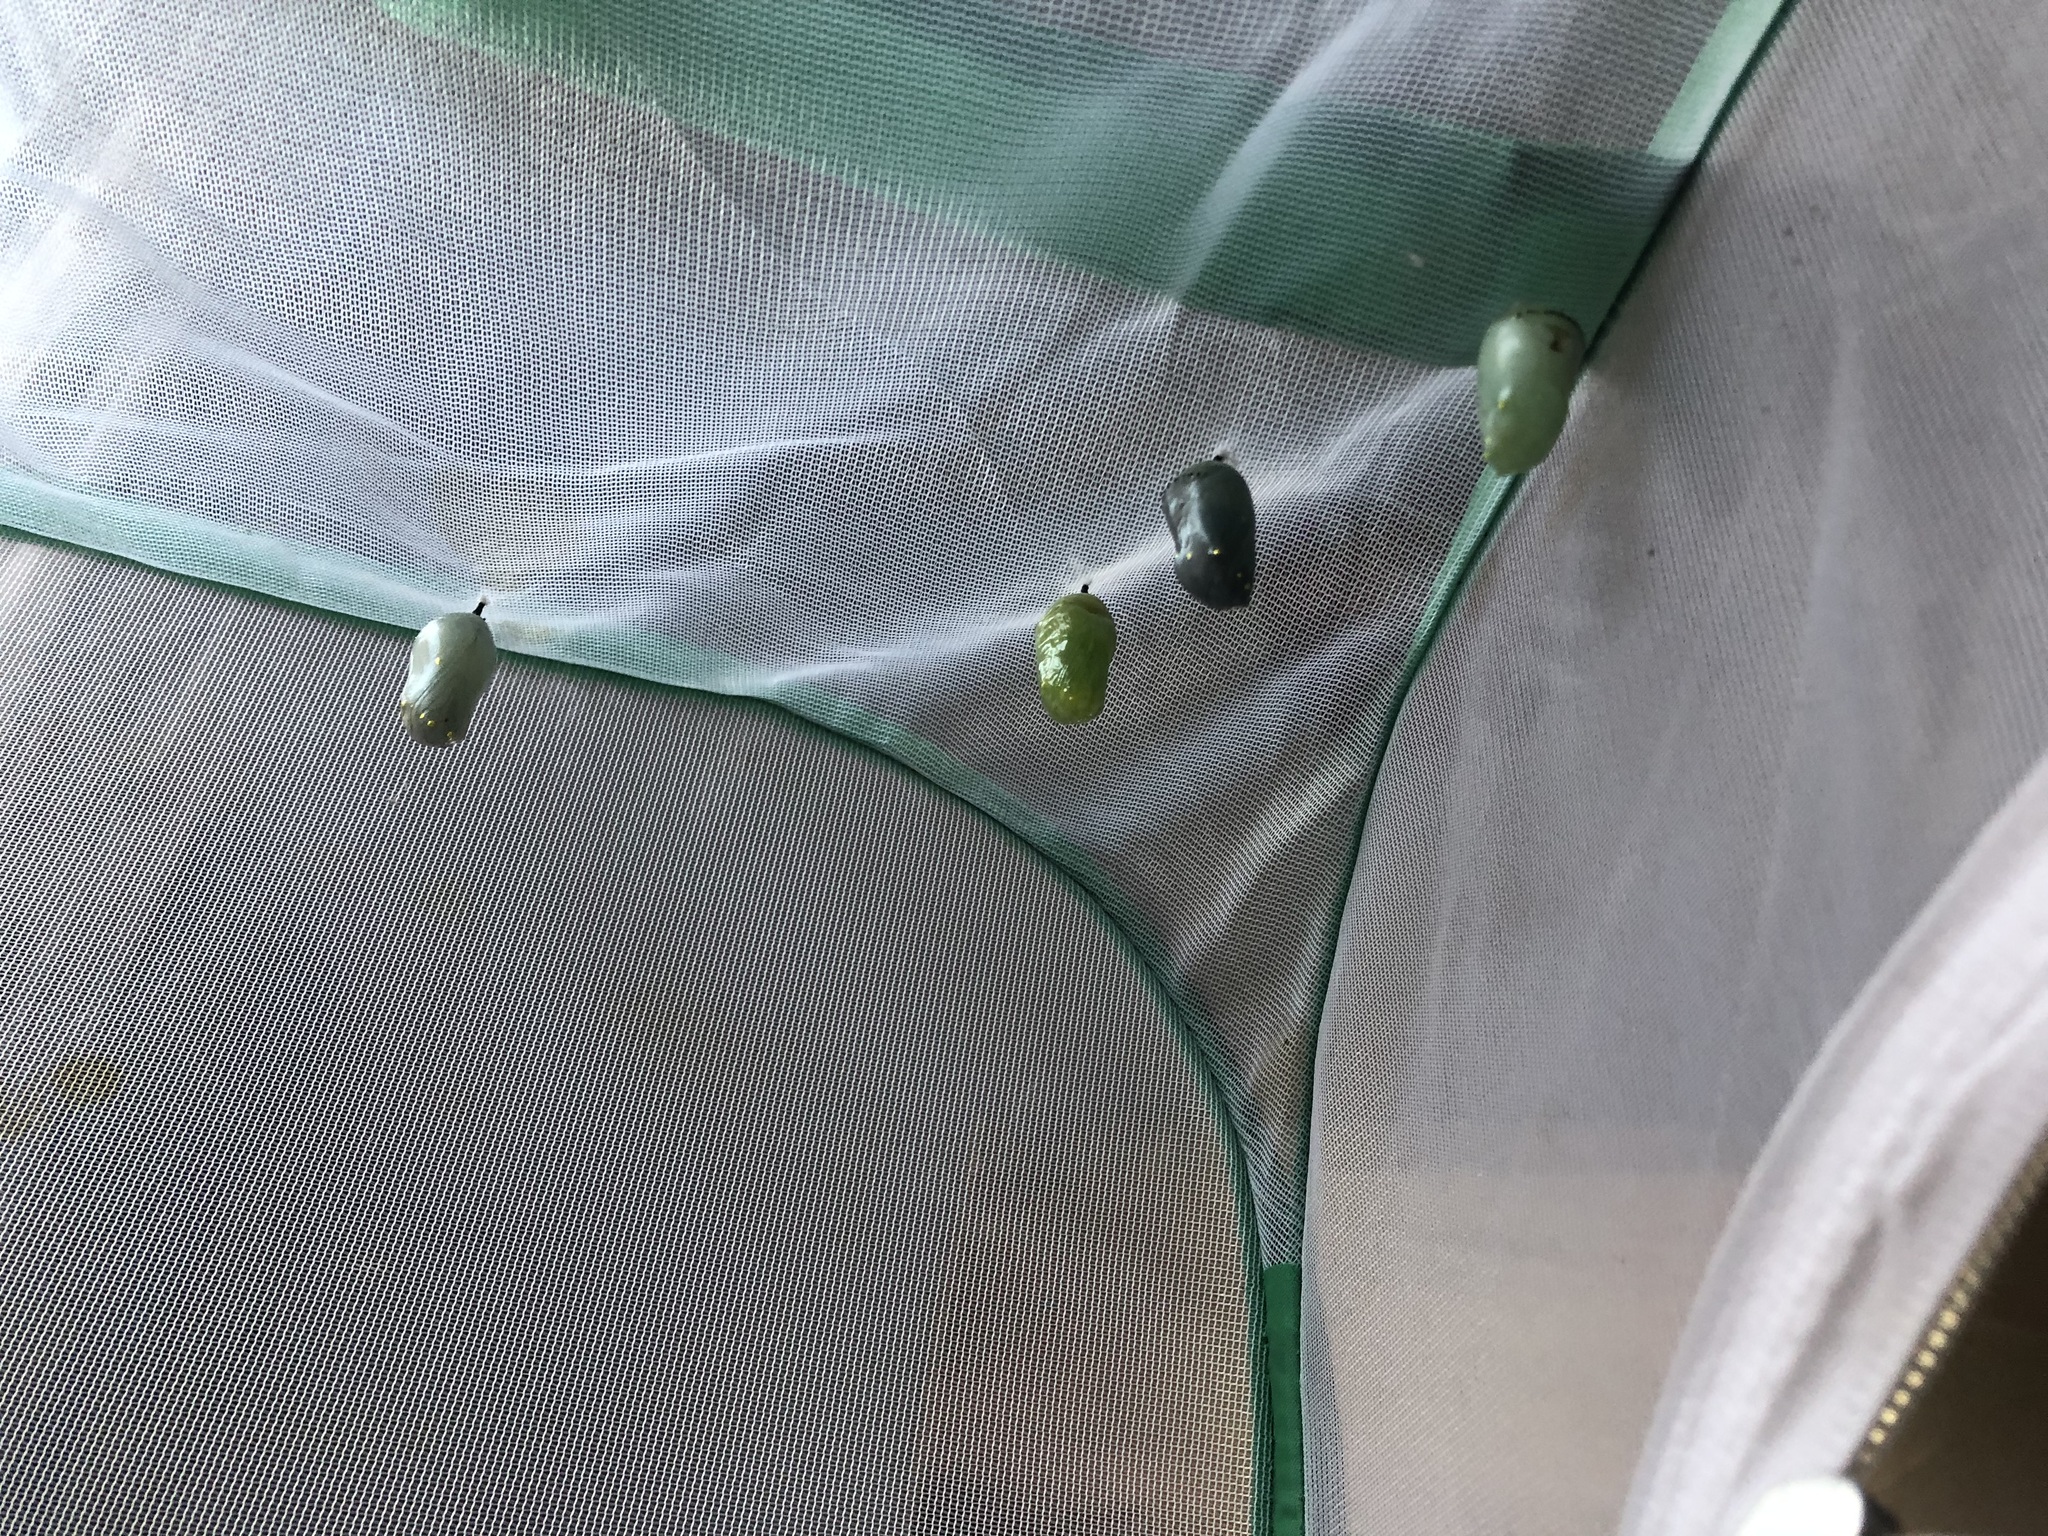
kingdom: Animalia
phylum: Arthropoda
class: Insecta
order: Lepidoptera
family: Nymphalidae
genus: Danaus
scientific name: Danaus plexippus
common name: Monarch
